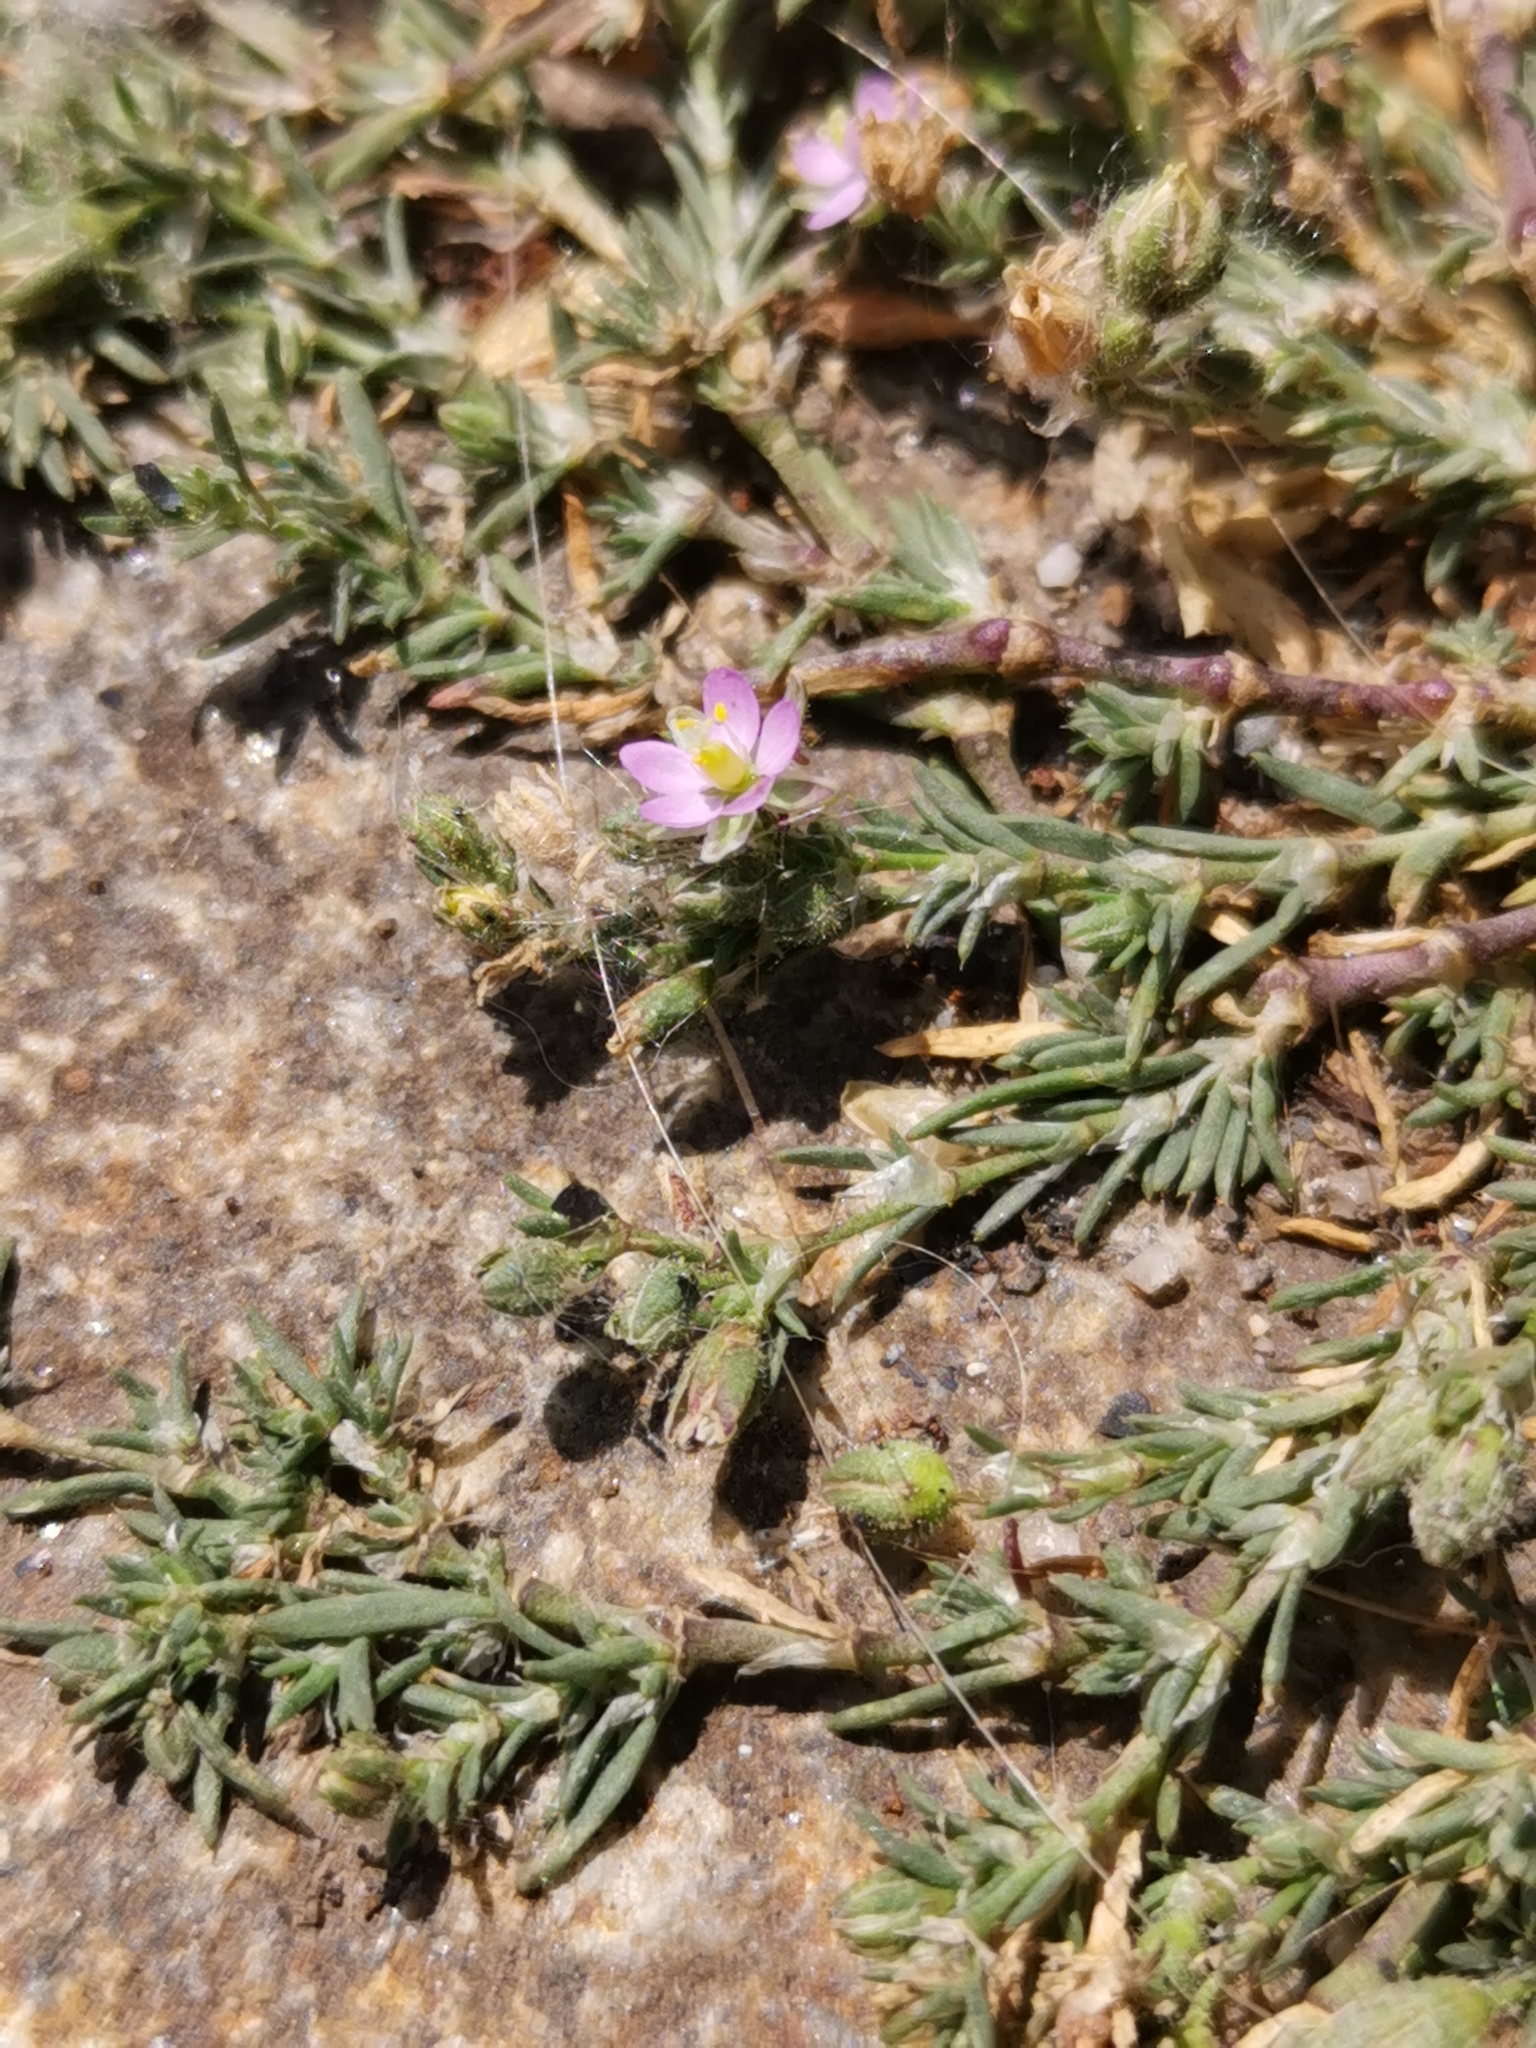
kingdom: Plantae
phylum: Tracheophyta
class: Magnoliopsida
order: Caryophyllales
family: Caryophyllaceae
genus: Spergularia
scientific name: Spergularia rubra
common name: Red sand-spurrey
